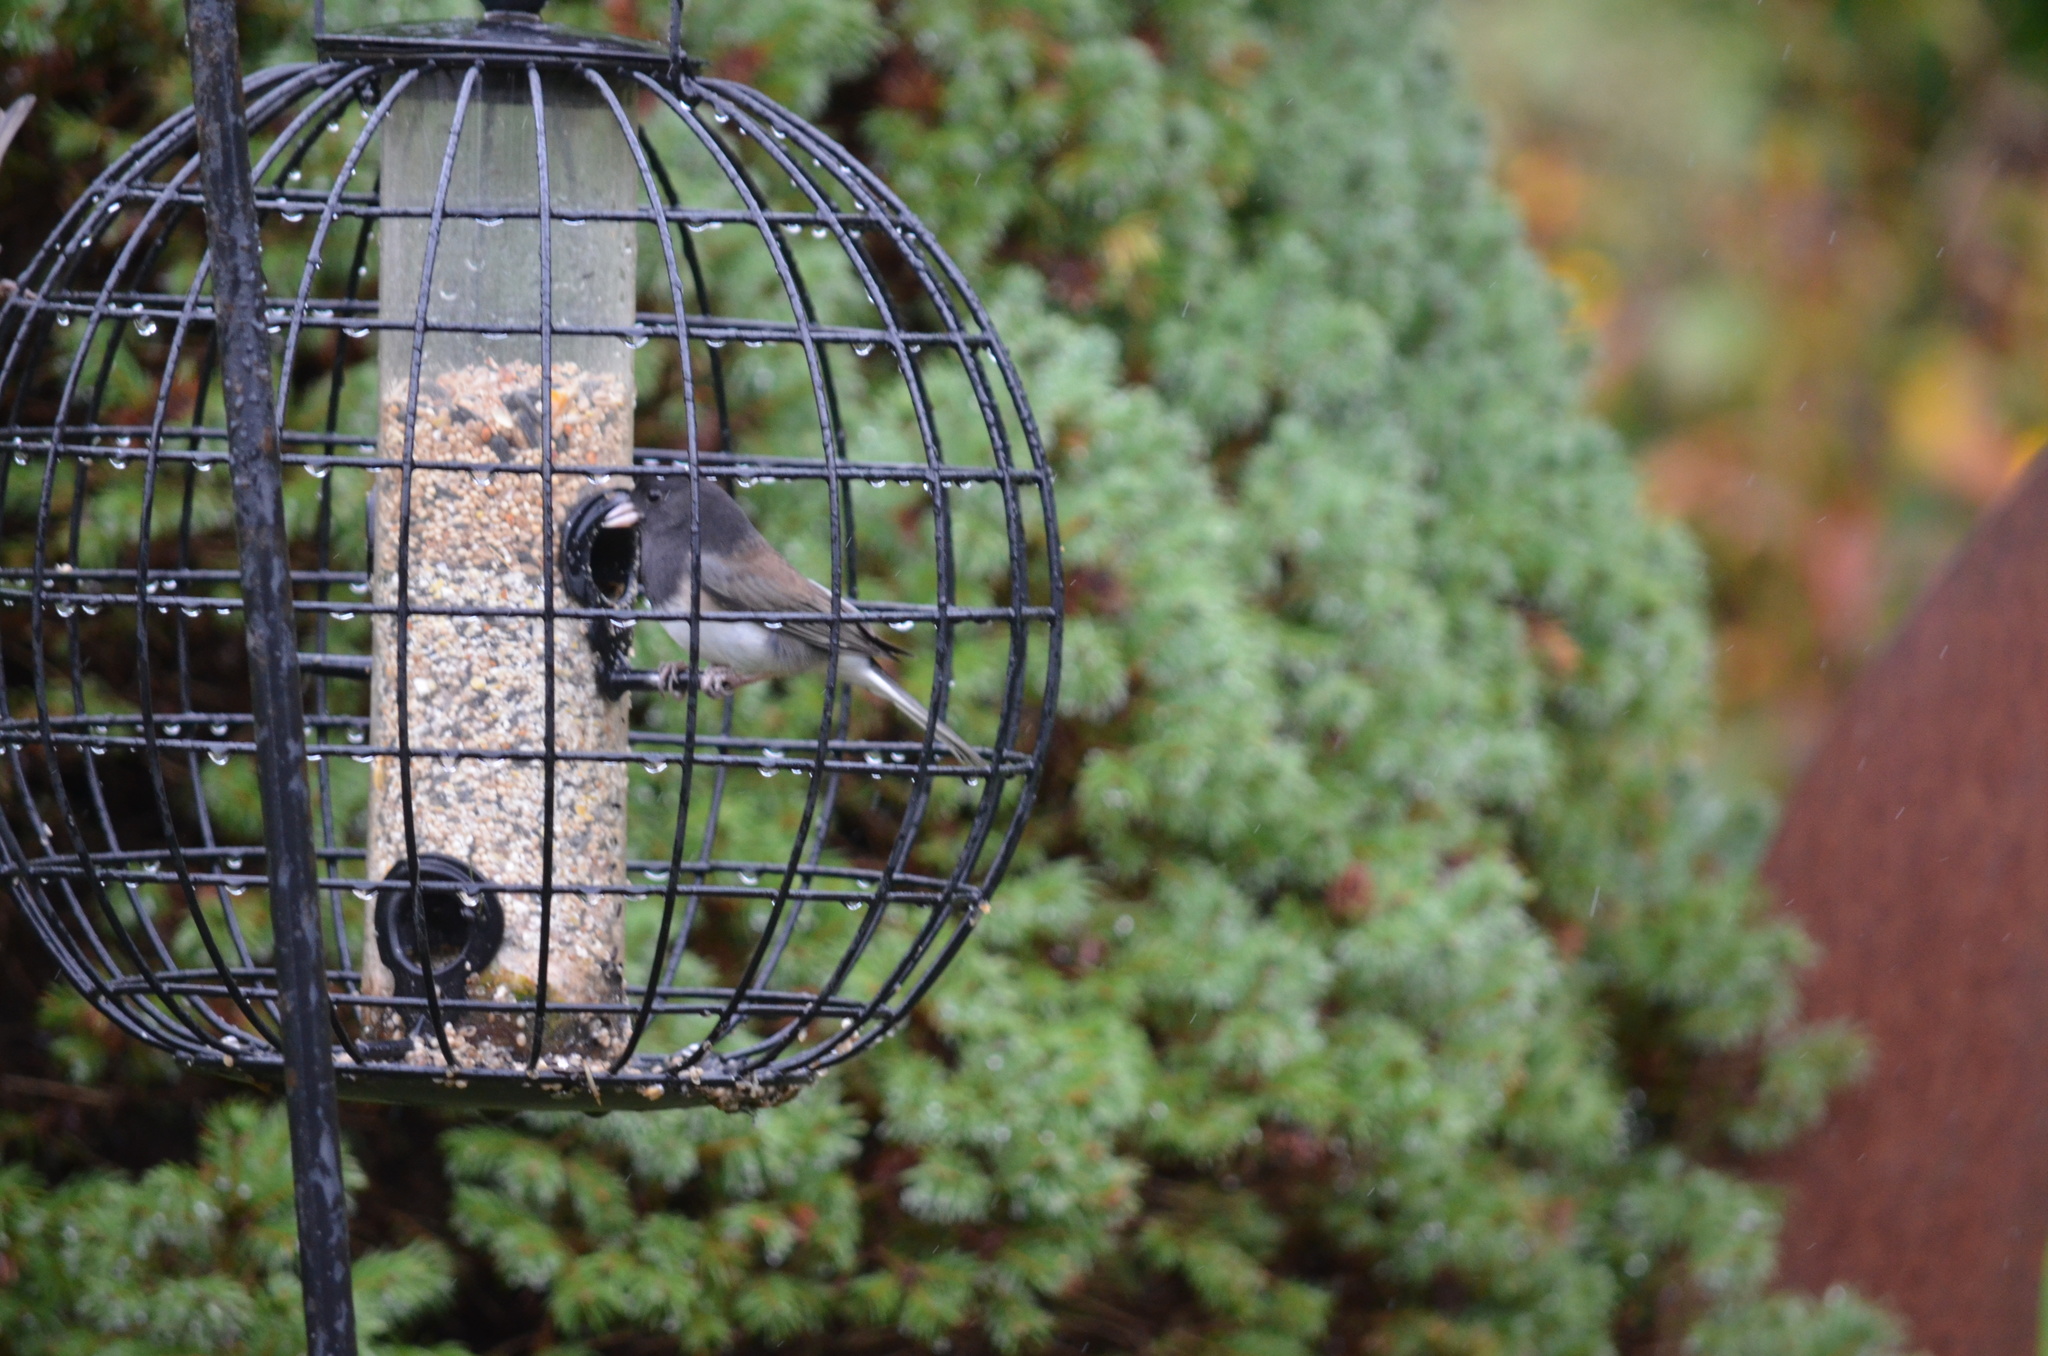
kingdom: Animalia
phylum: Chordata
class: Aves
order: Passeriformes
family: Passerellidae
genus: Junco
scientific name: Junco hyemalis
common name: Dark-eyed junco
